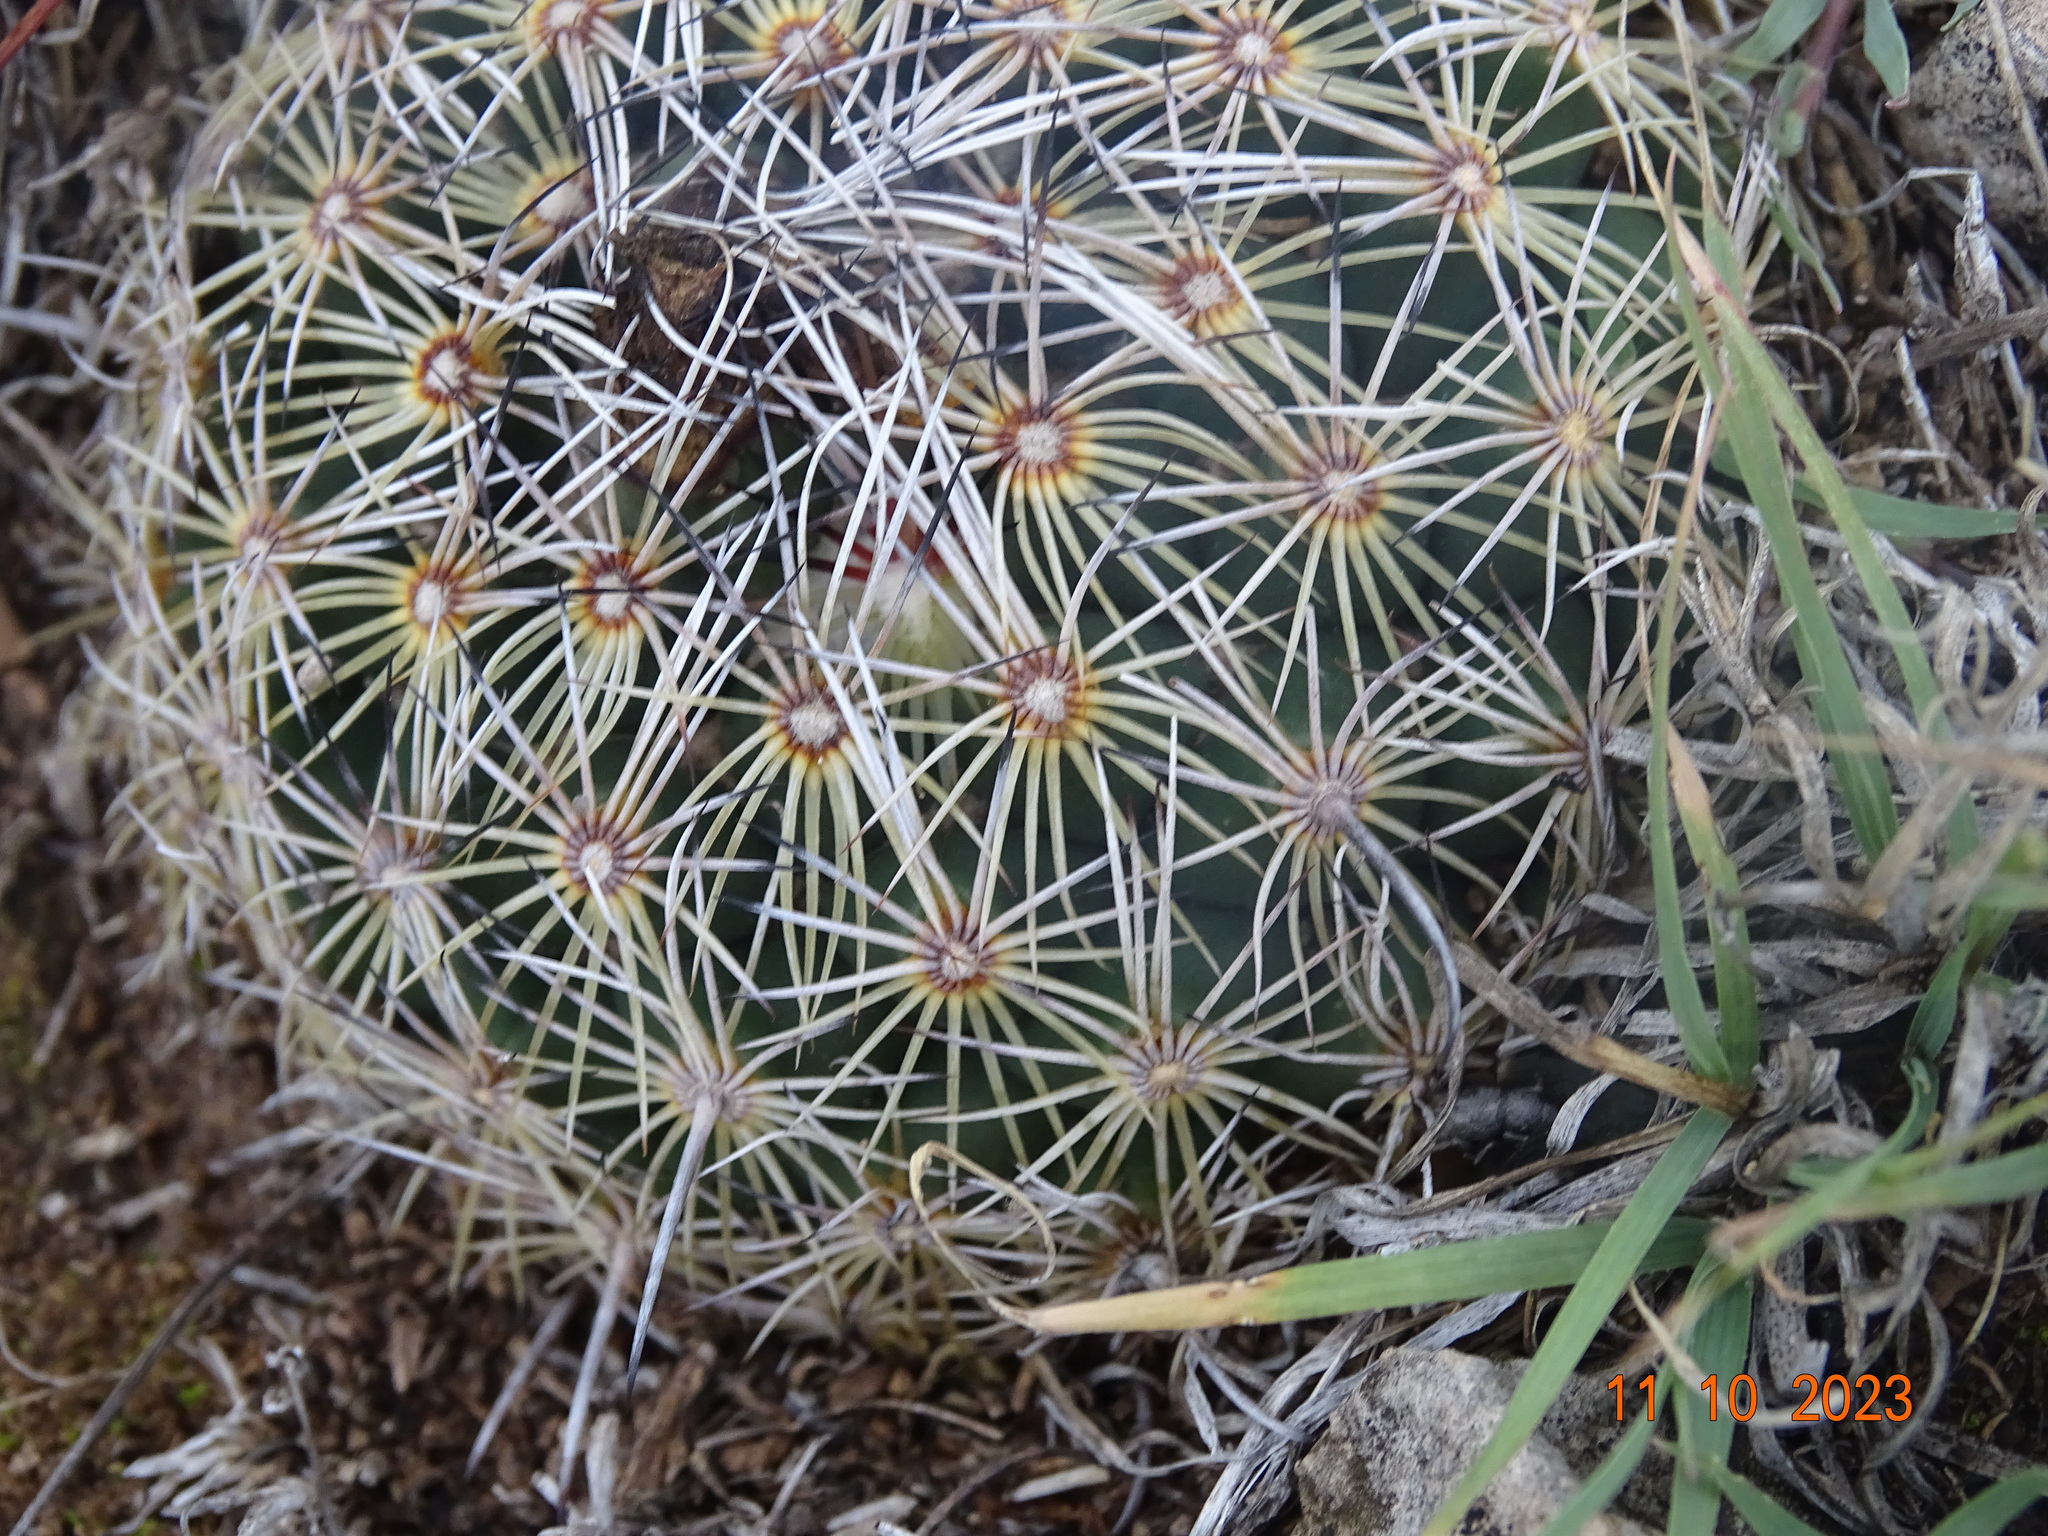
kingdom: Plantae
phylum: Tracheophyta
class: Magnoliopsida
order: Caryophyllales
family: Cactaceae
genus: Coryphantha
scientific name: Coryphantha delicata
